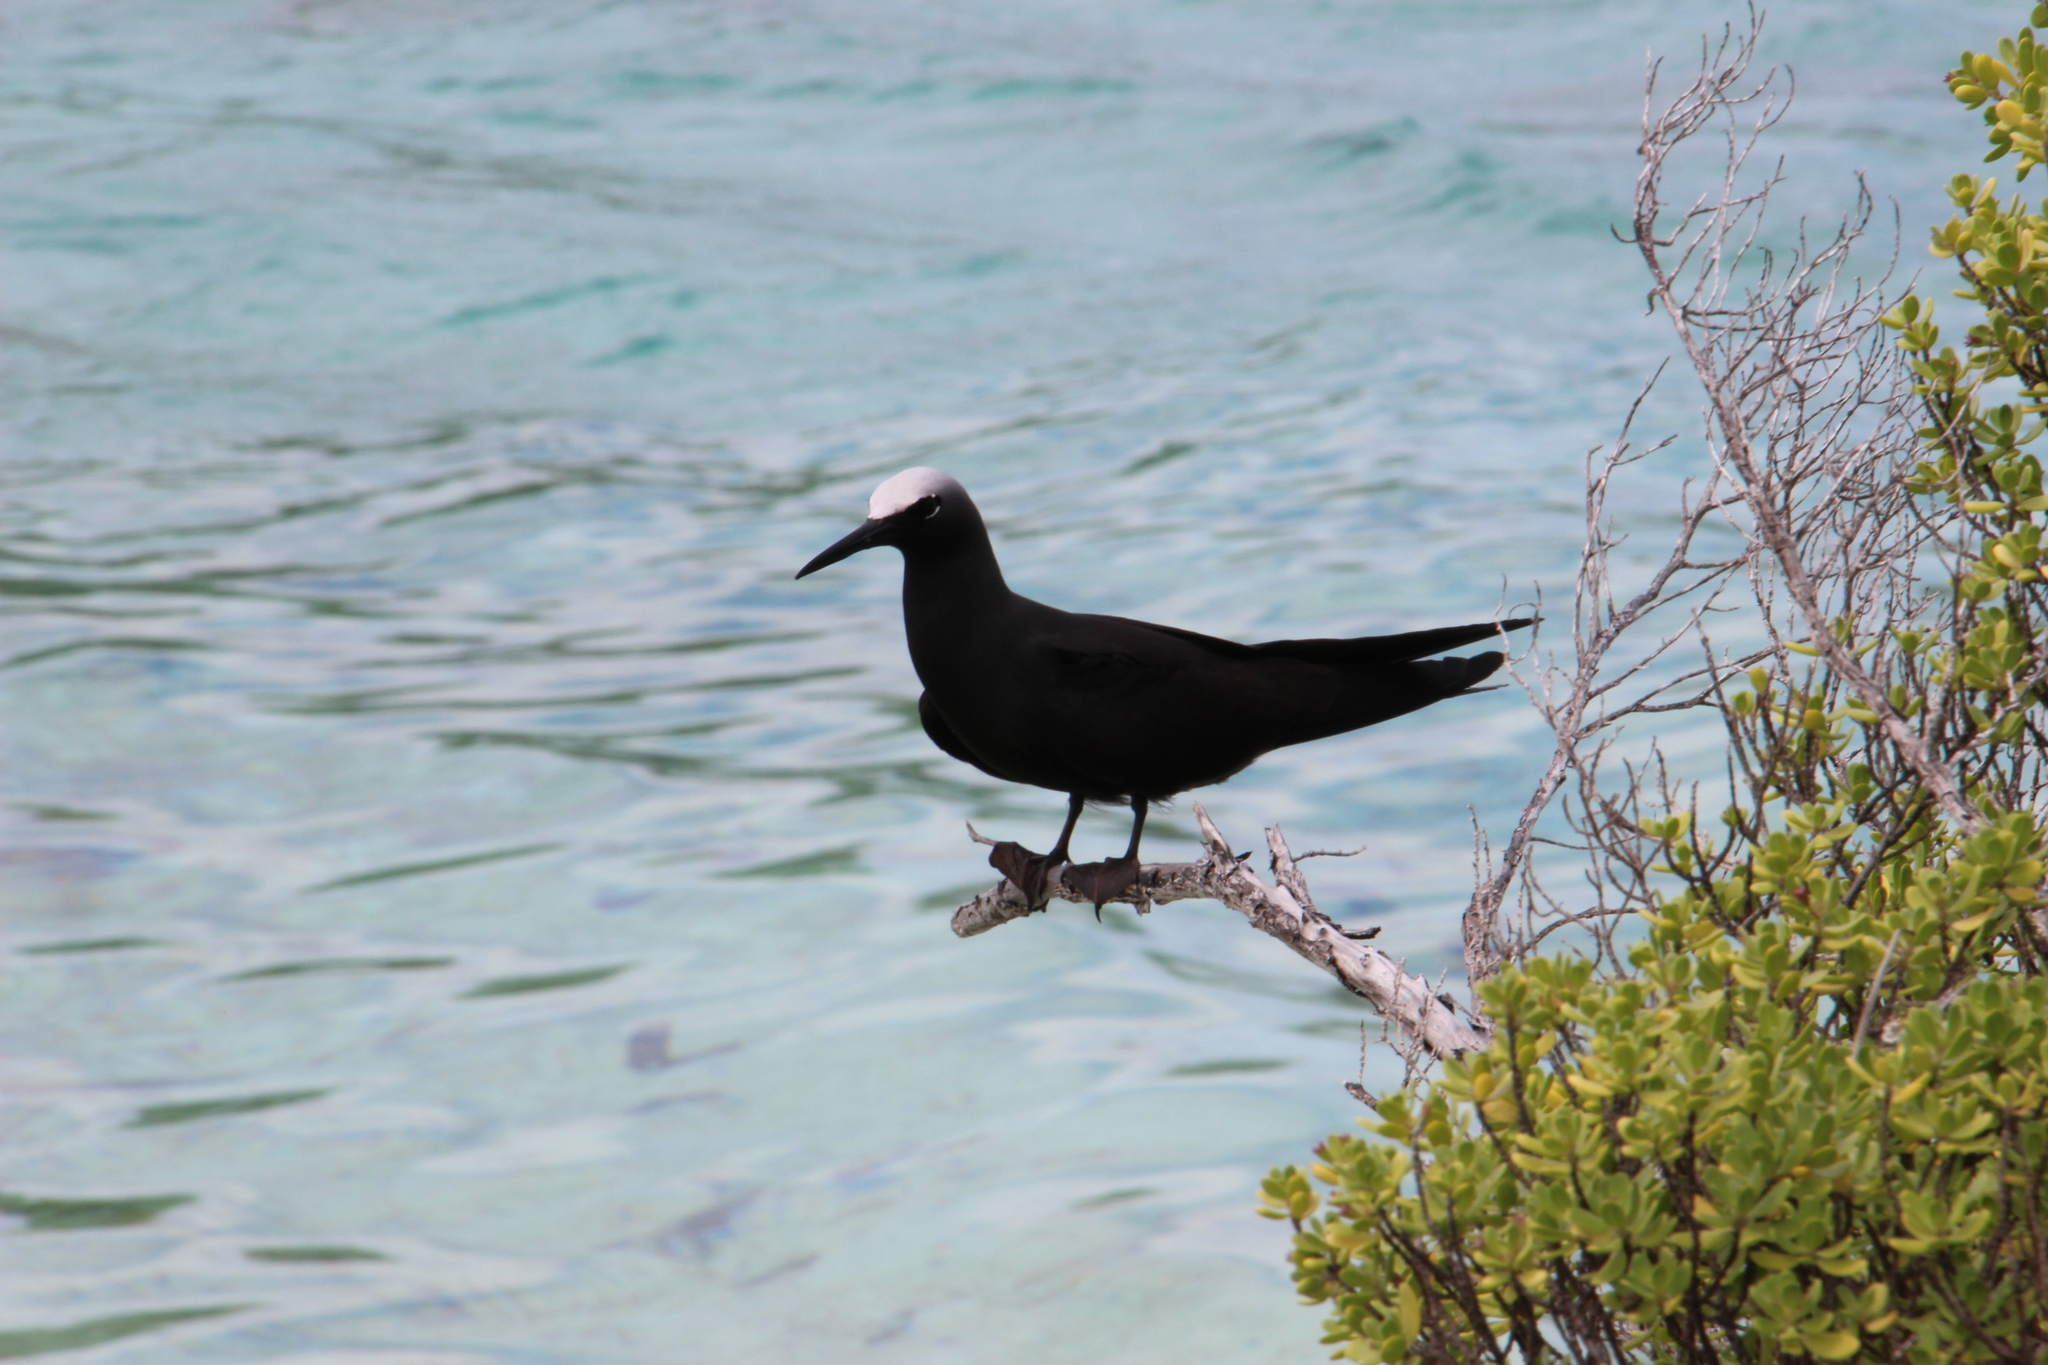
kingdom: Animalia
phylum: Chordata
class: Aves
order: Charadriiformes
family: Laridae
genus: Anous
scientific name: Anous minutus
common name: Black noddy
